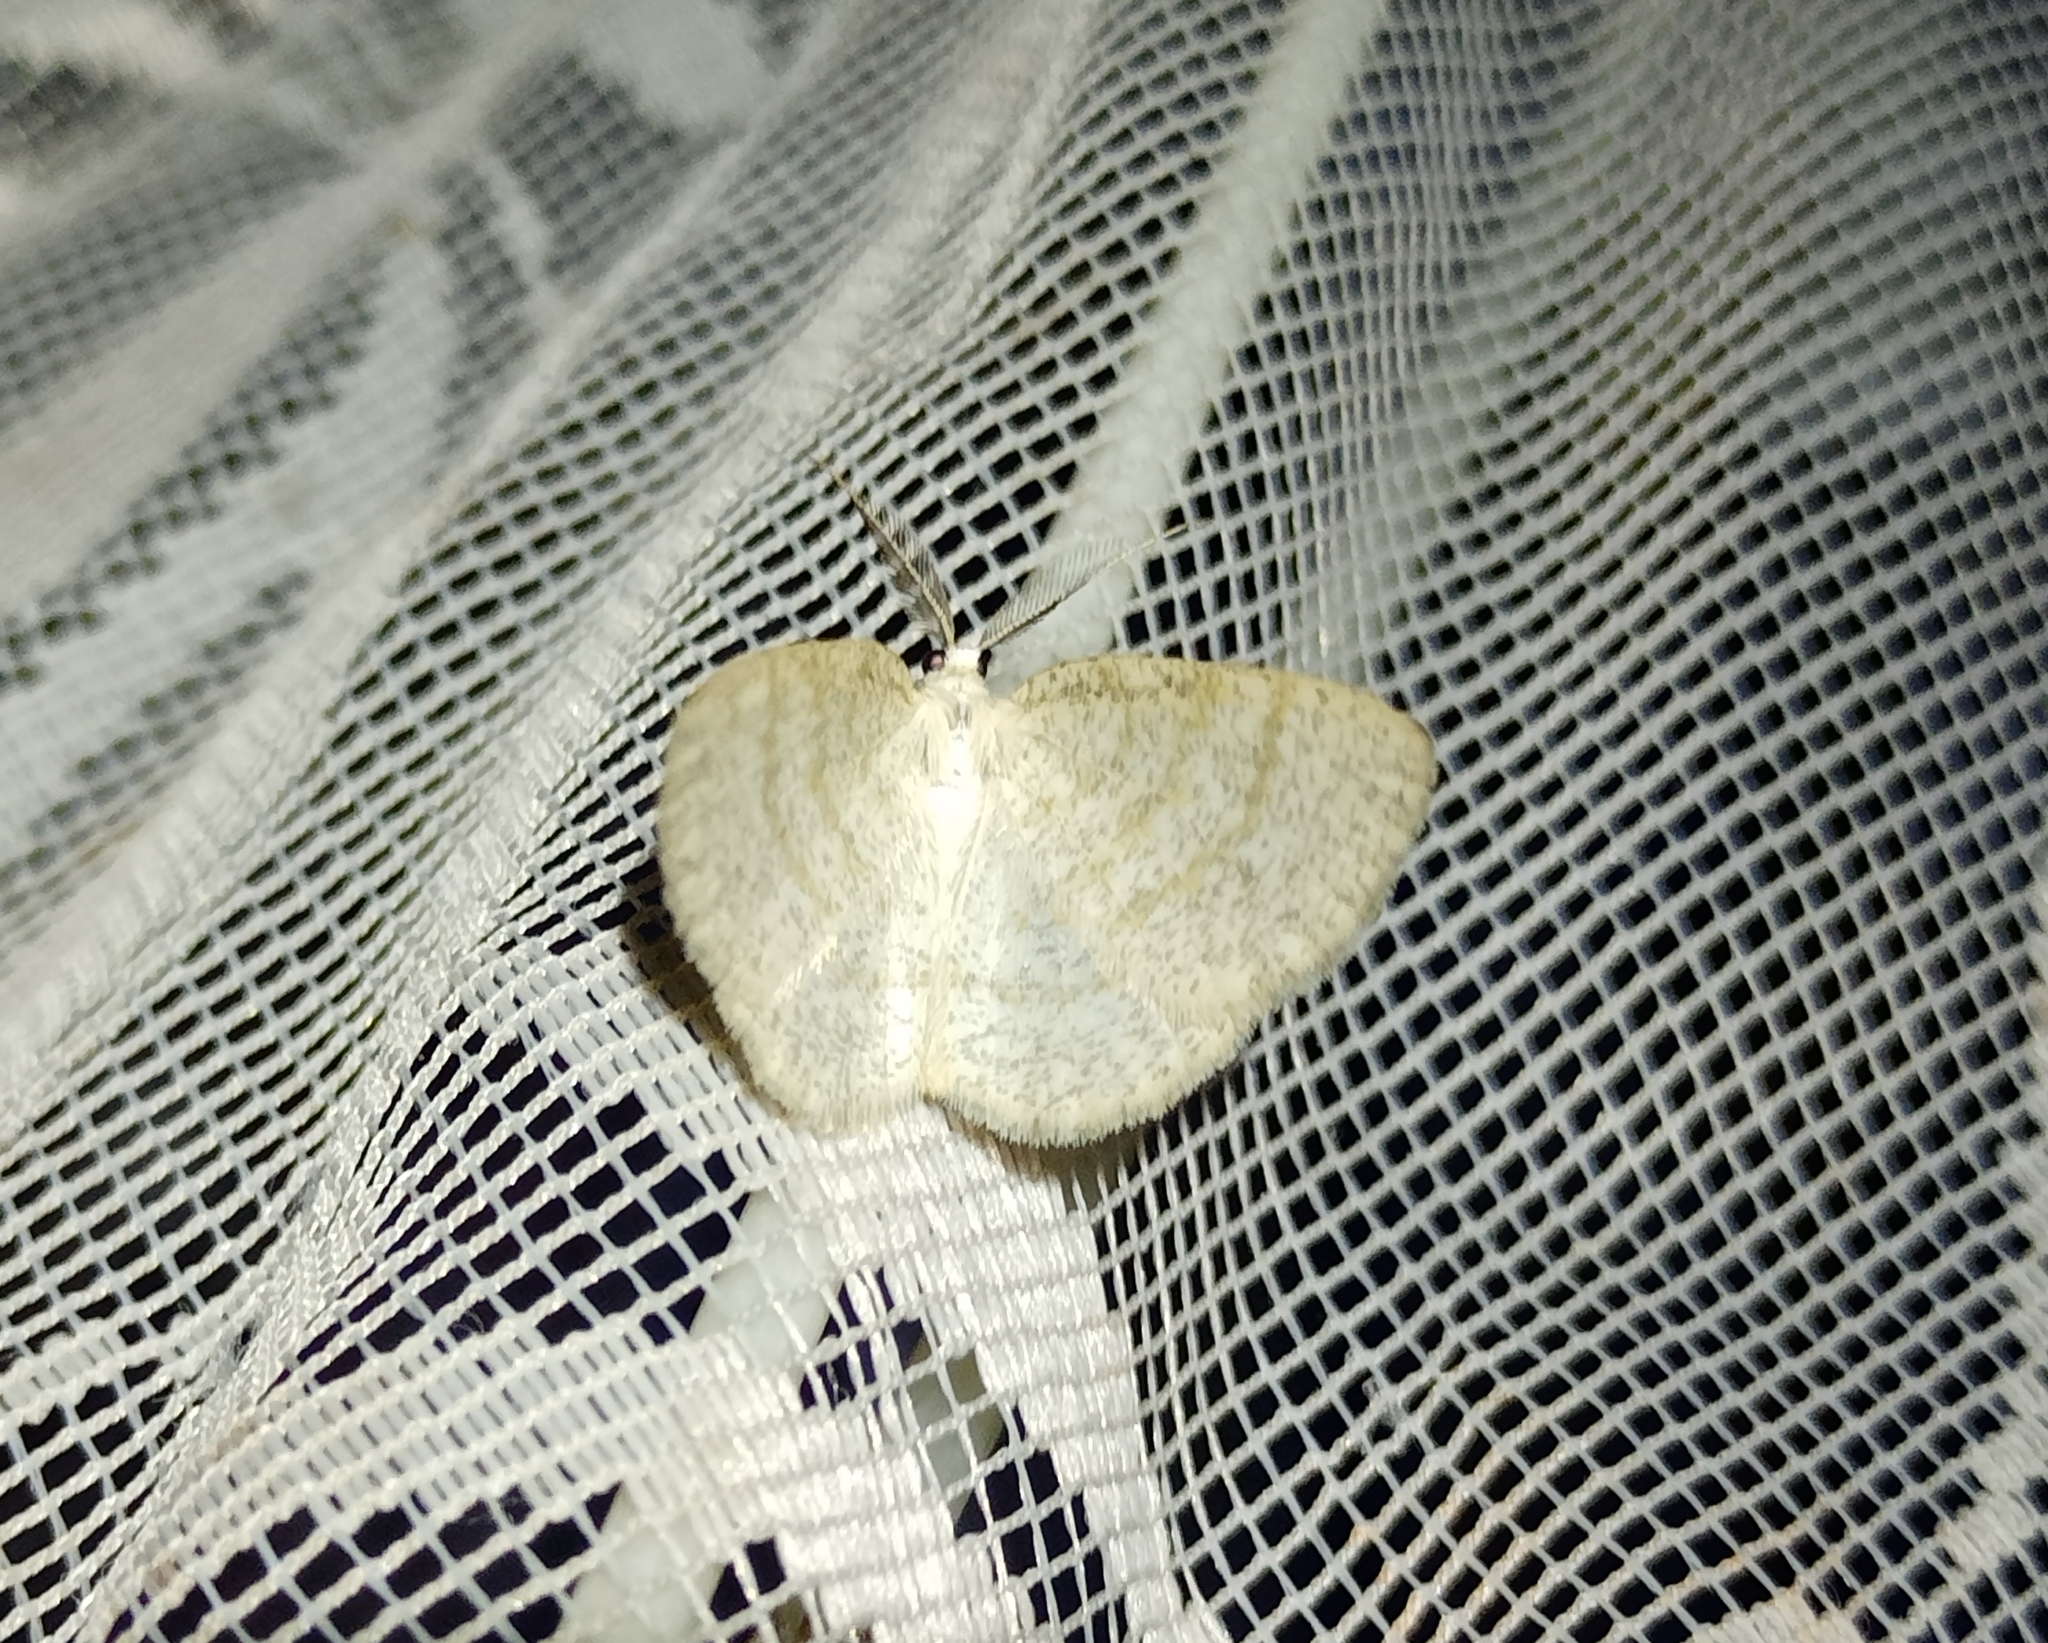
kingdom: Animalia
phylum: Arthropoda
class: Insecta
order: Lepidoptera
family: Geometridae
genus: Cabera
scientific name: Cabera exanthemata
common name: Common wave
